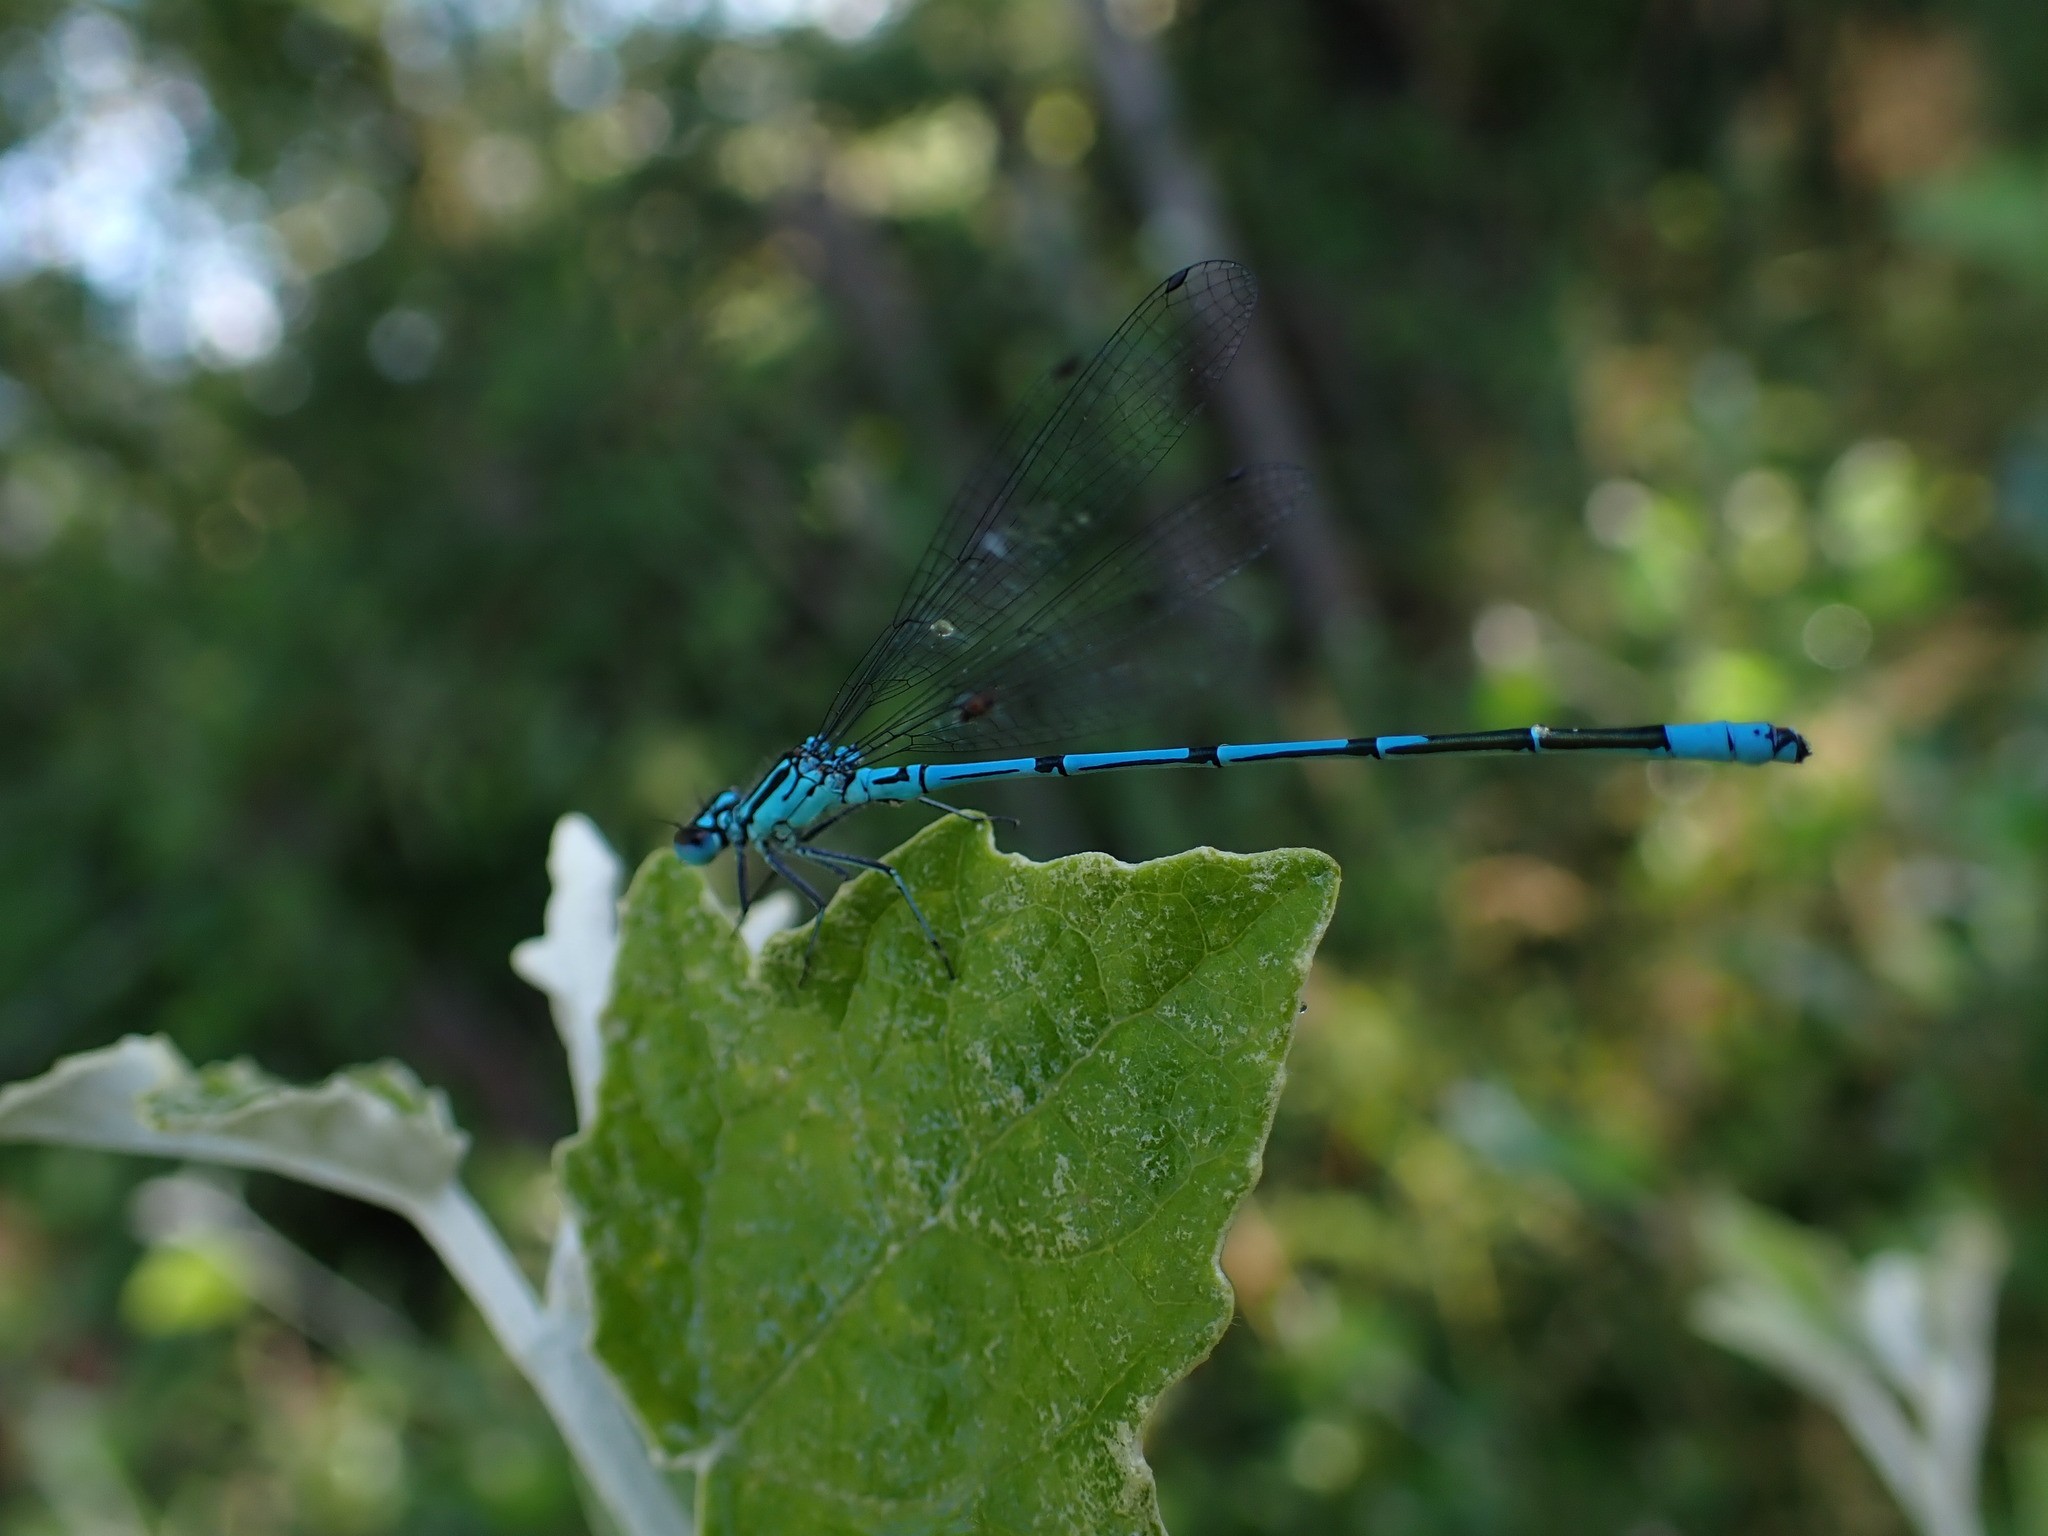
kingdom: Animalia
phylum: Arthropoda
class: Insecta
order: Odonata
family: Coenagrionidae
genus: Coenagrion
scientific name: Coenagrion puella
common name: Azure damselfly
